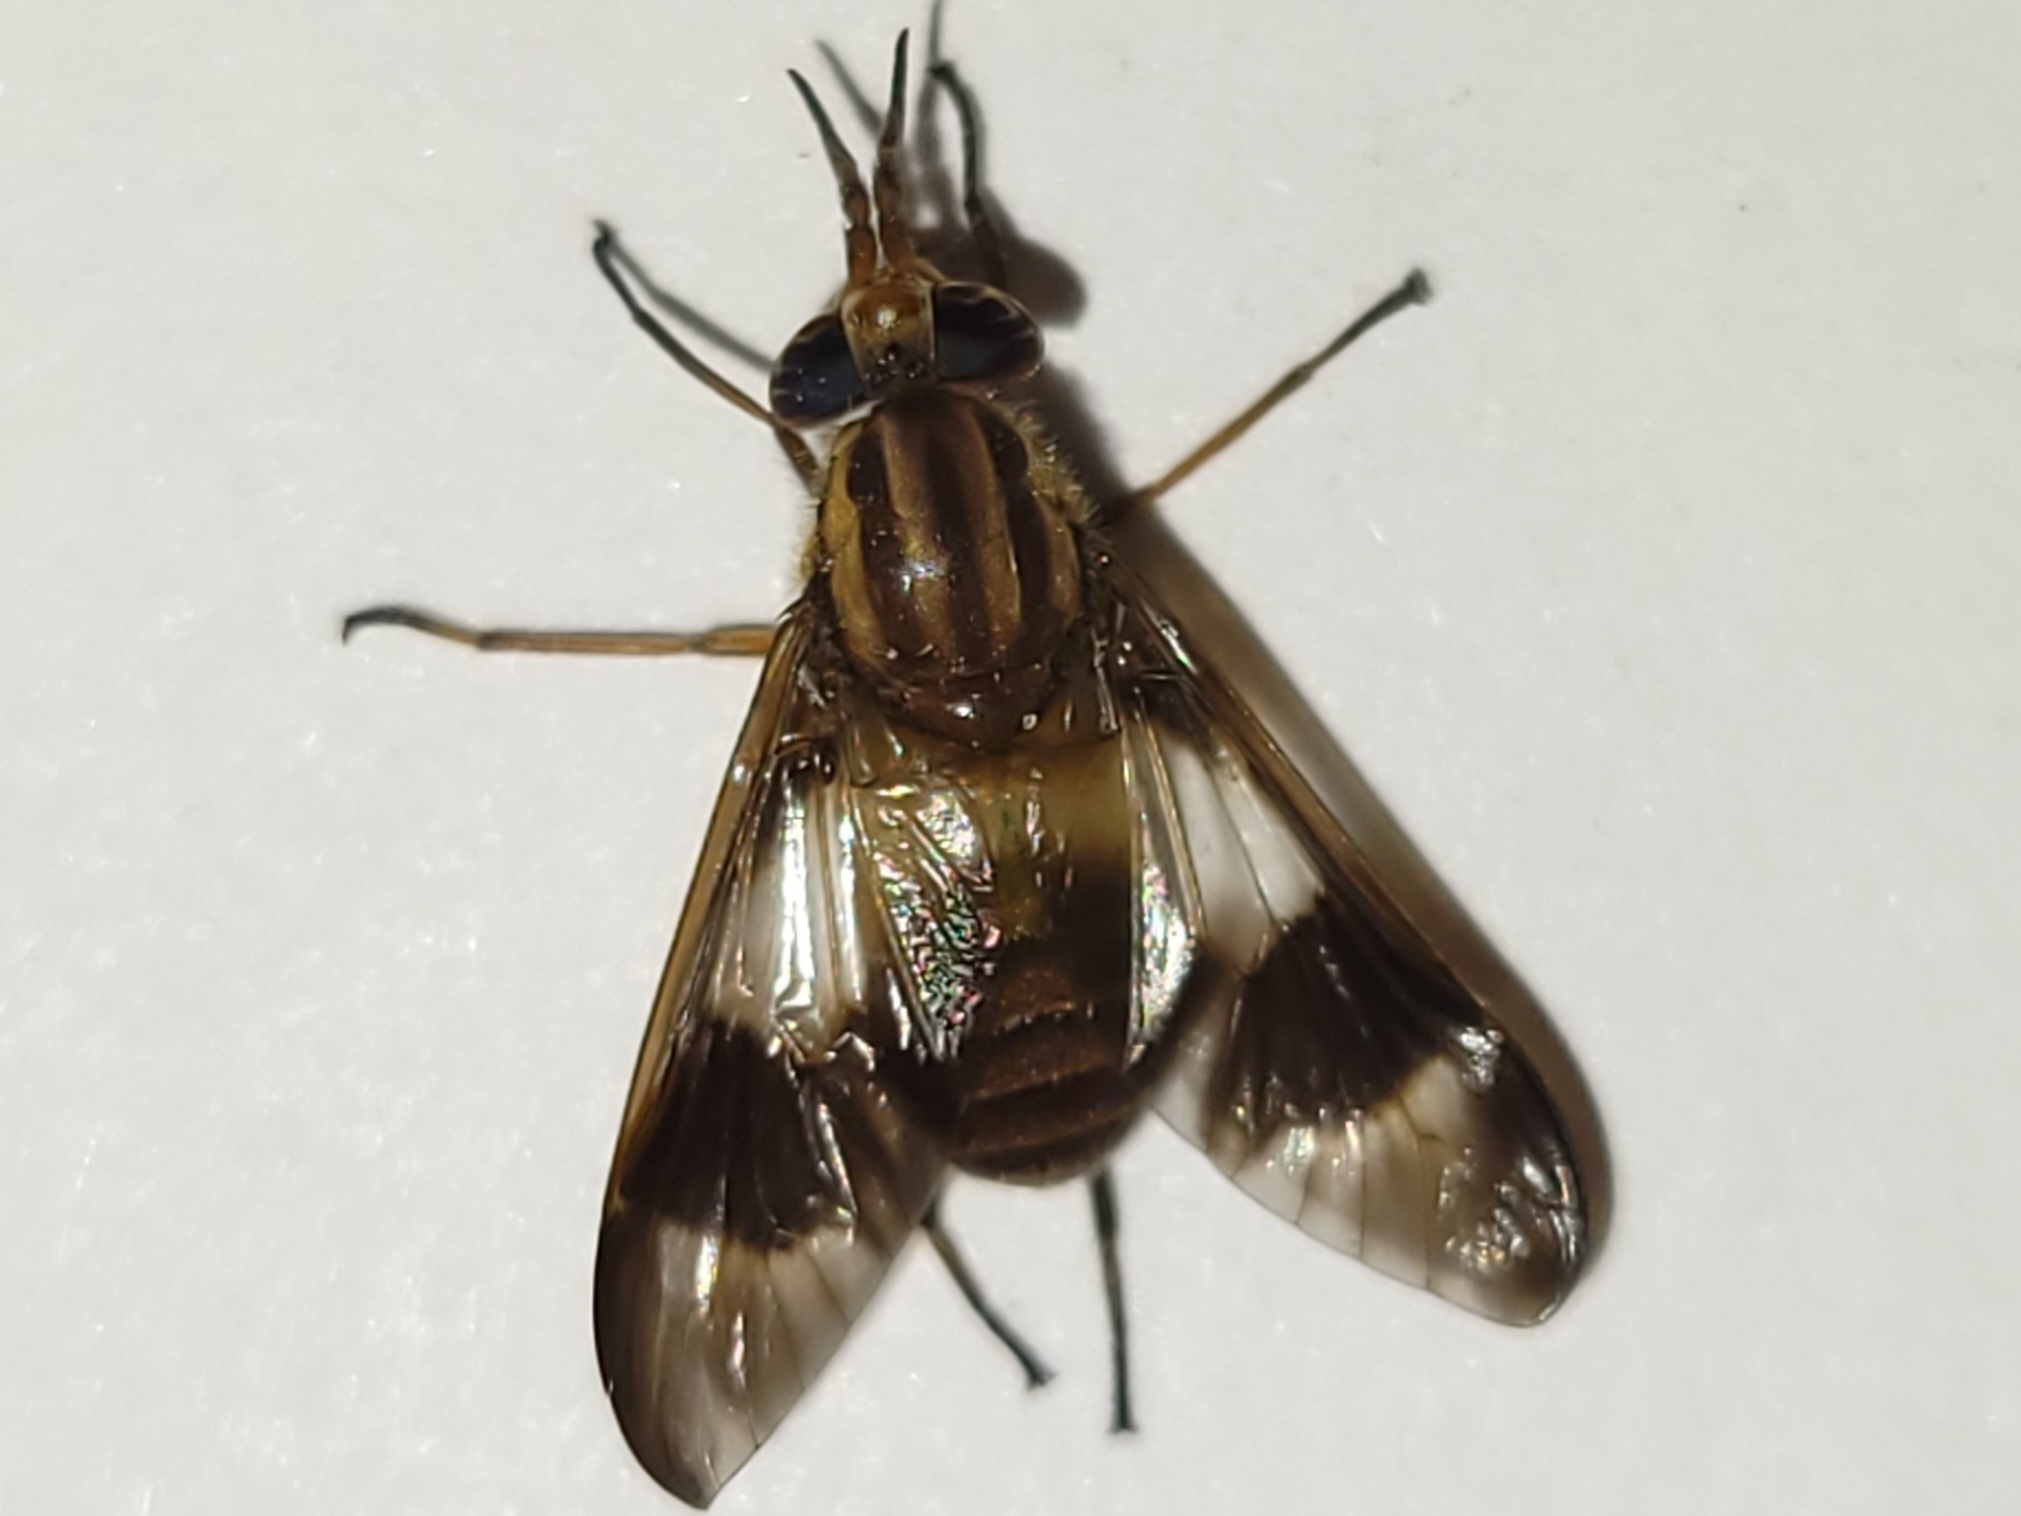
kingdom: Animalia
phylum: Arthropoda
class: Insecta
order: Diptera
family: Tabanidae
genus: Chrysops
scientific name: Chrysops reicherti
